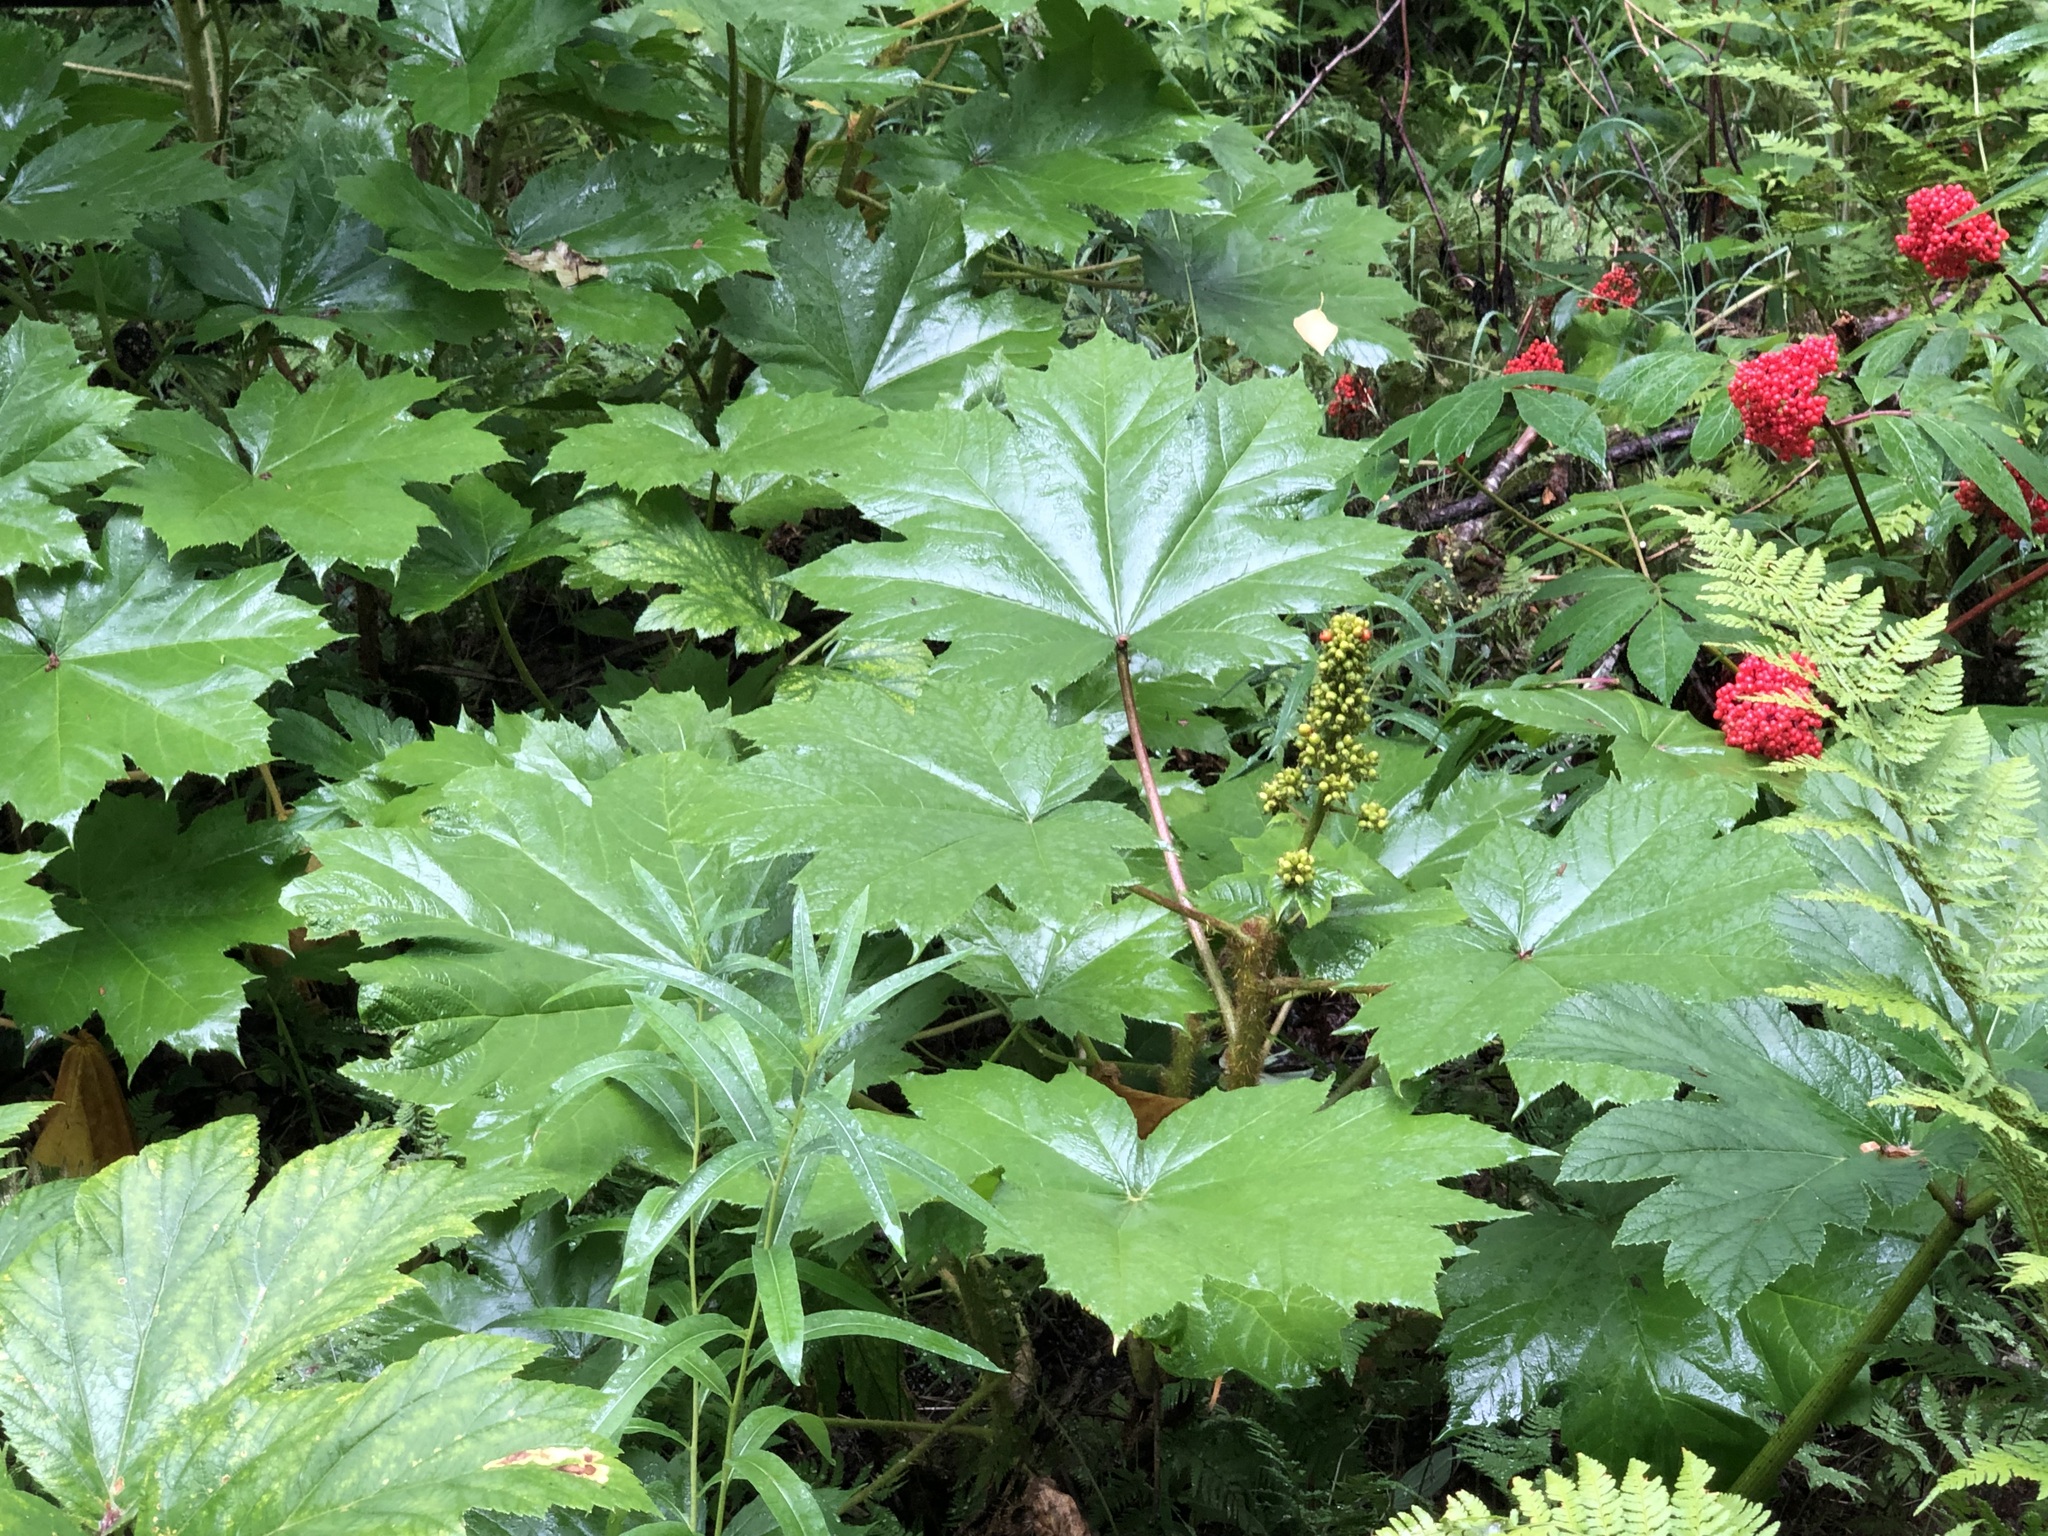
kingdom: Plantae
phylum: Tracheophyta
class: Magnoliopsida
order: Apiales
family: Araliaceae
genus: Oplopanax
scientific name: Oplopanax horridus
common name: Devil's walking-stick
